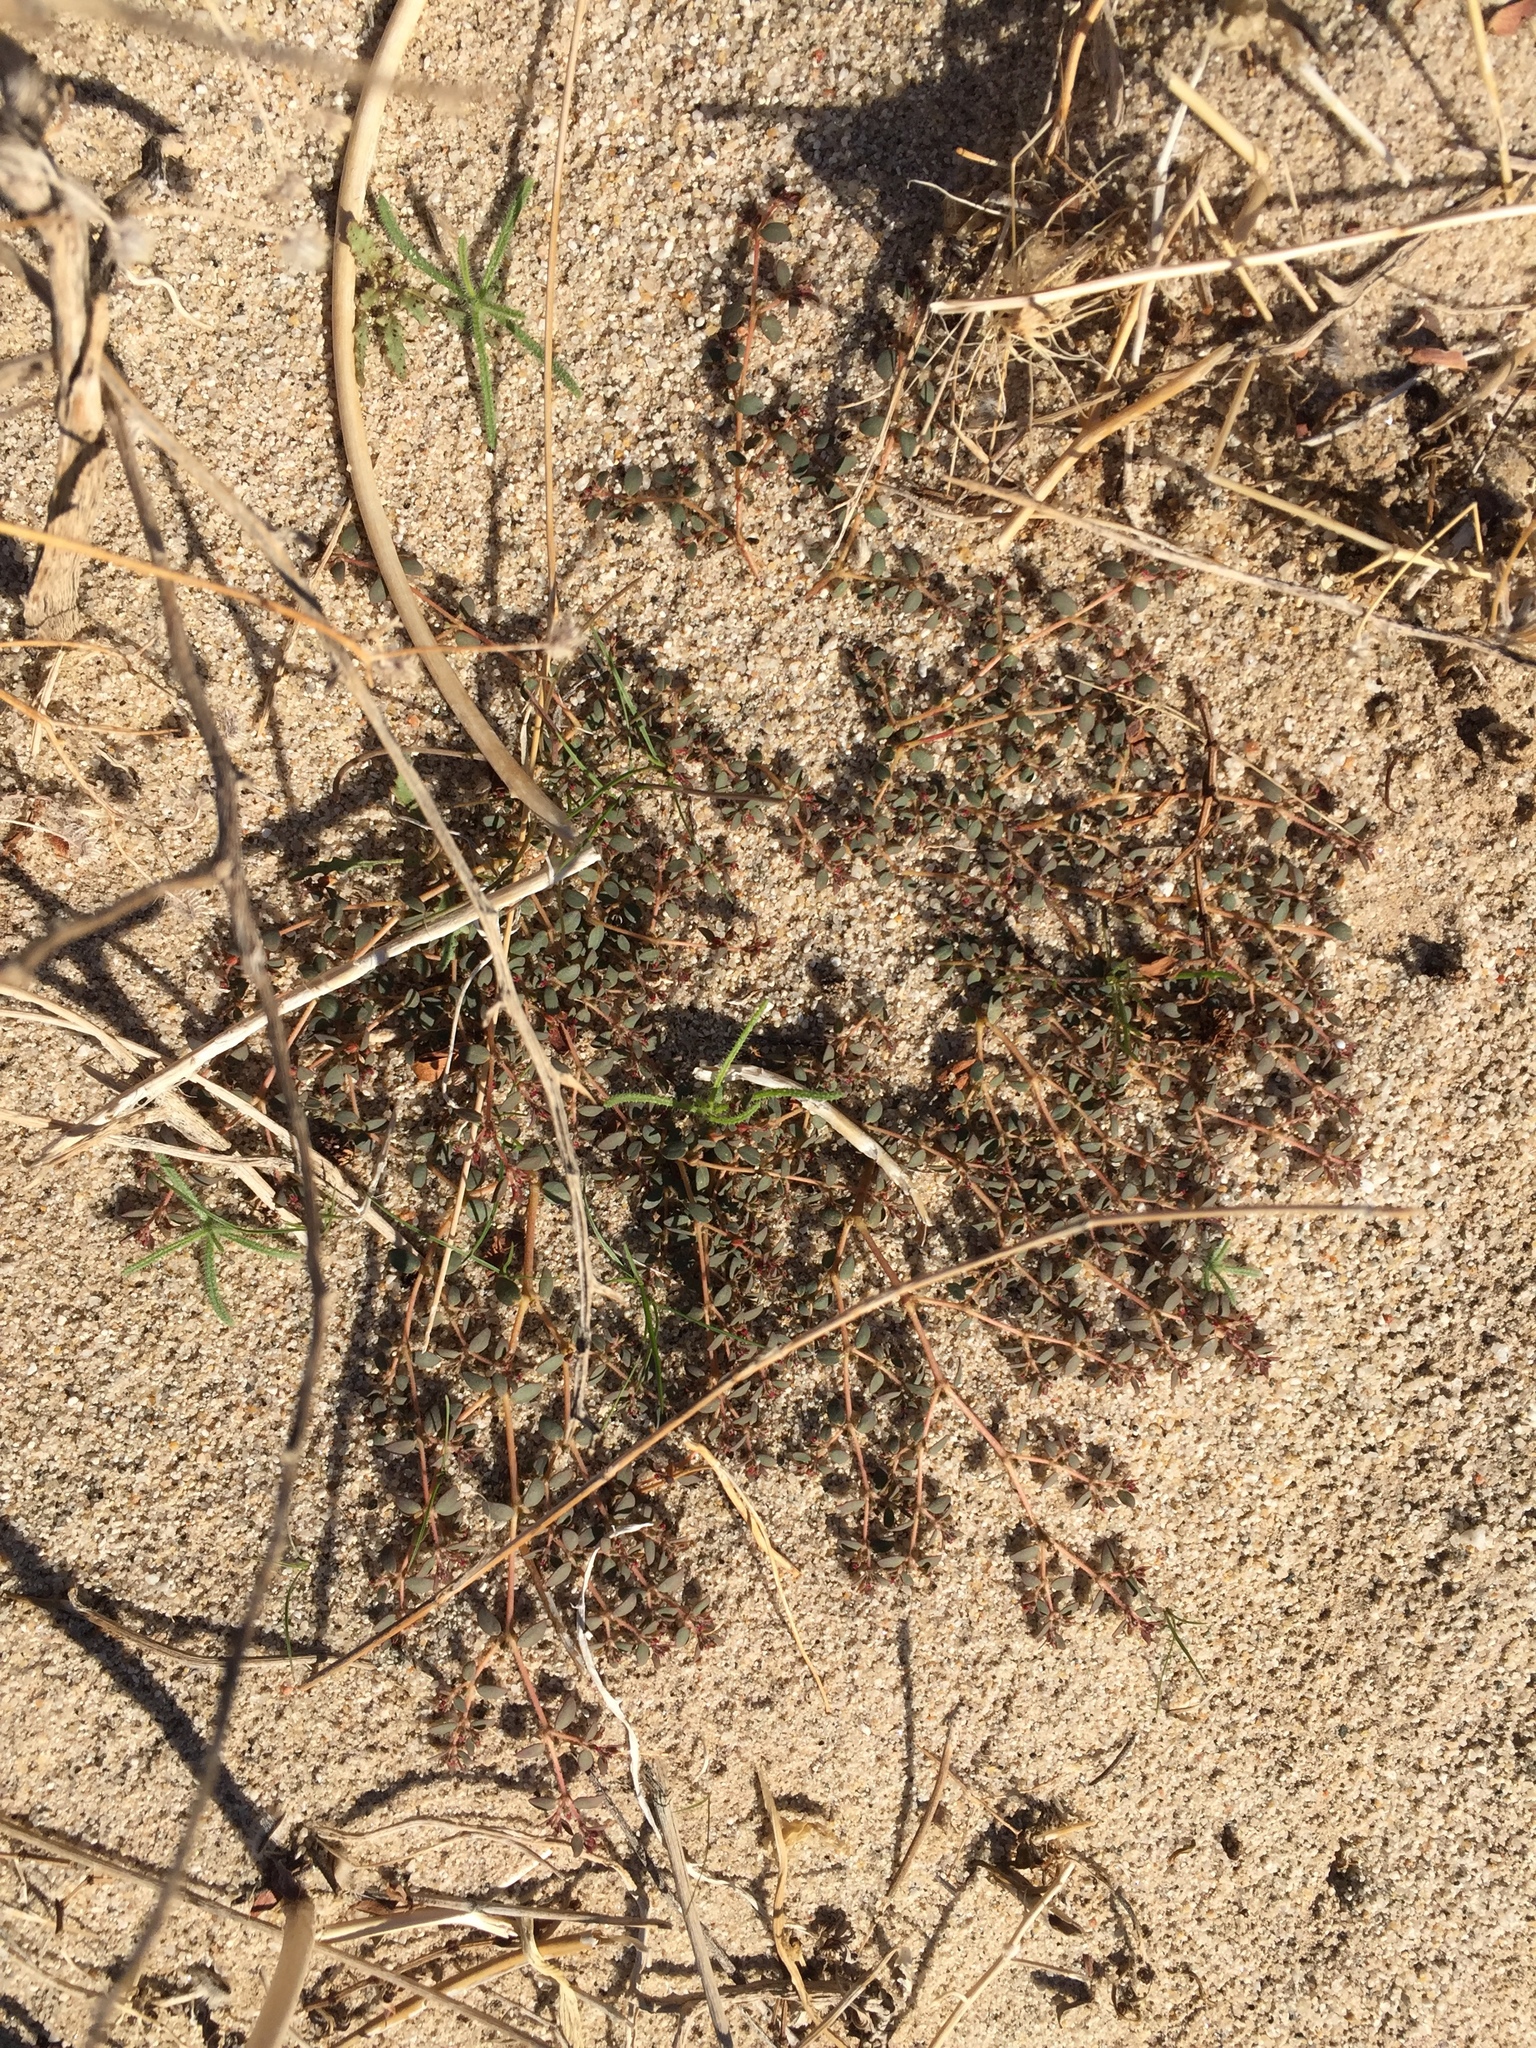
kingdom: Plantae
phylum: Tracheophyta
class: Magnoliopsida
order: Malpighiales
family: Euphorbiaceae
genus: Euphorbia
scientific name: Euphorbia micromera
